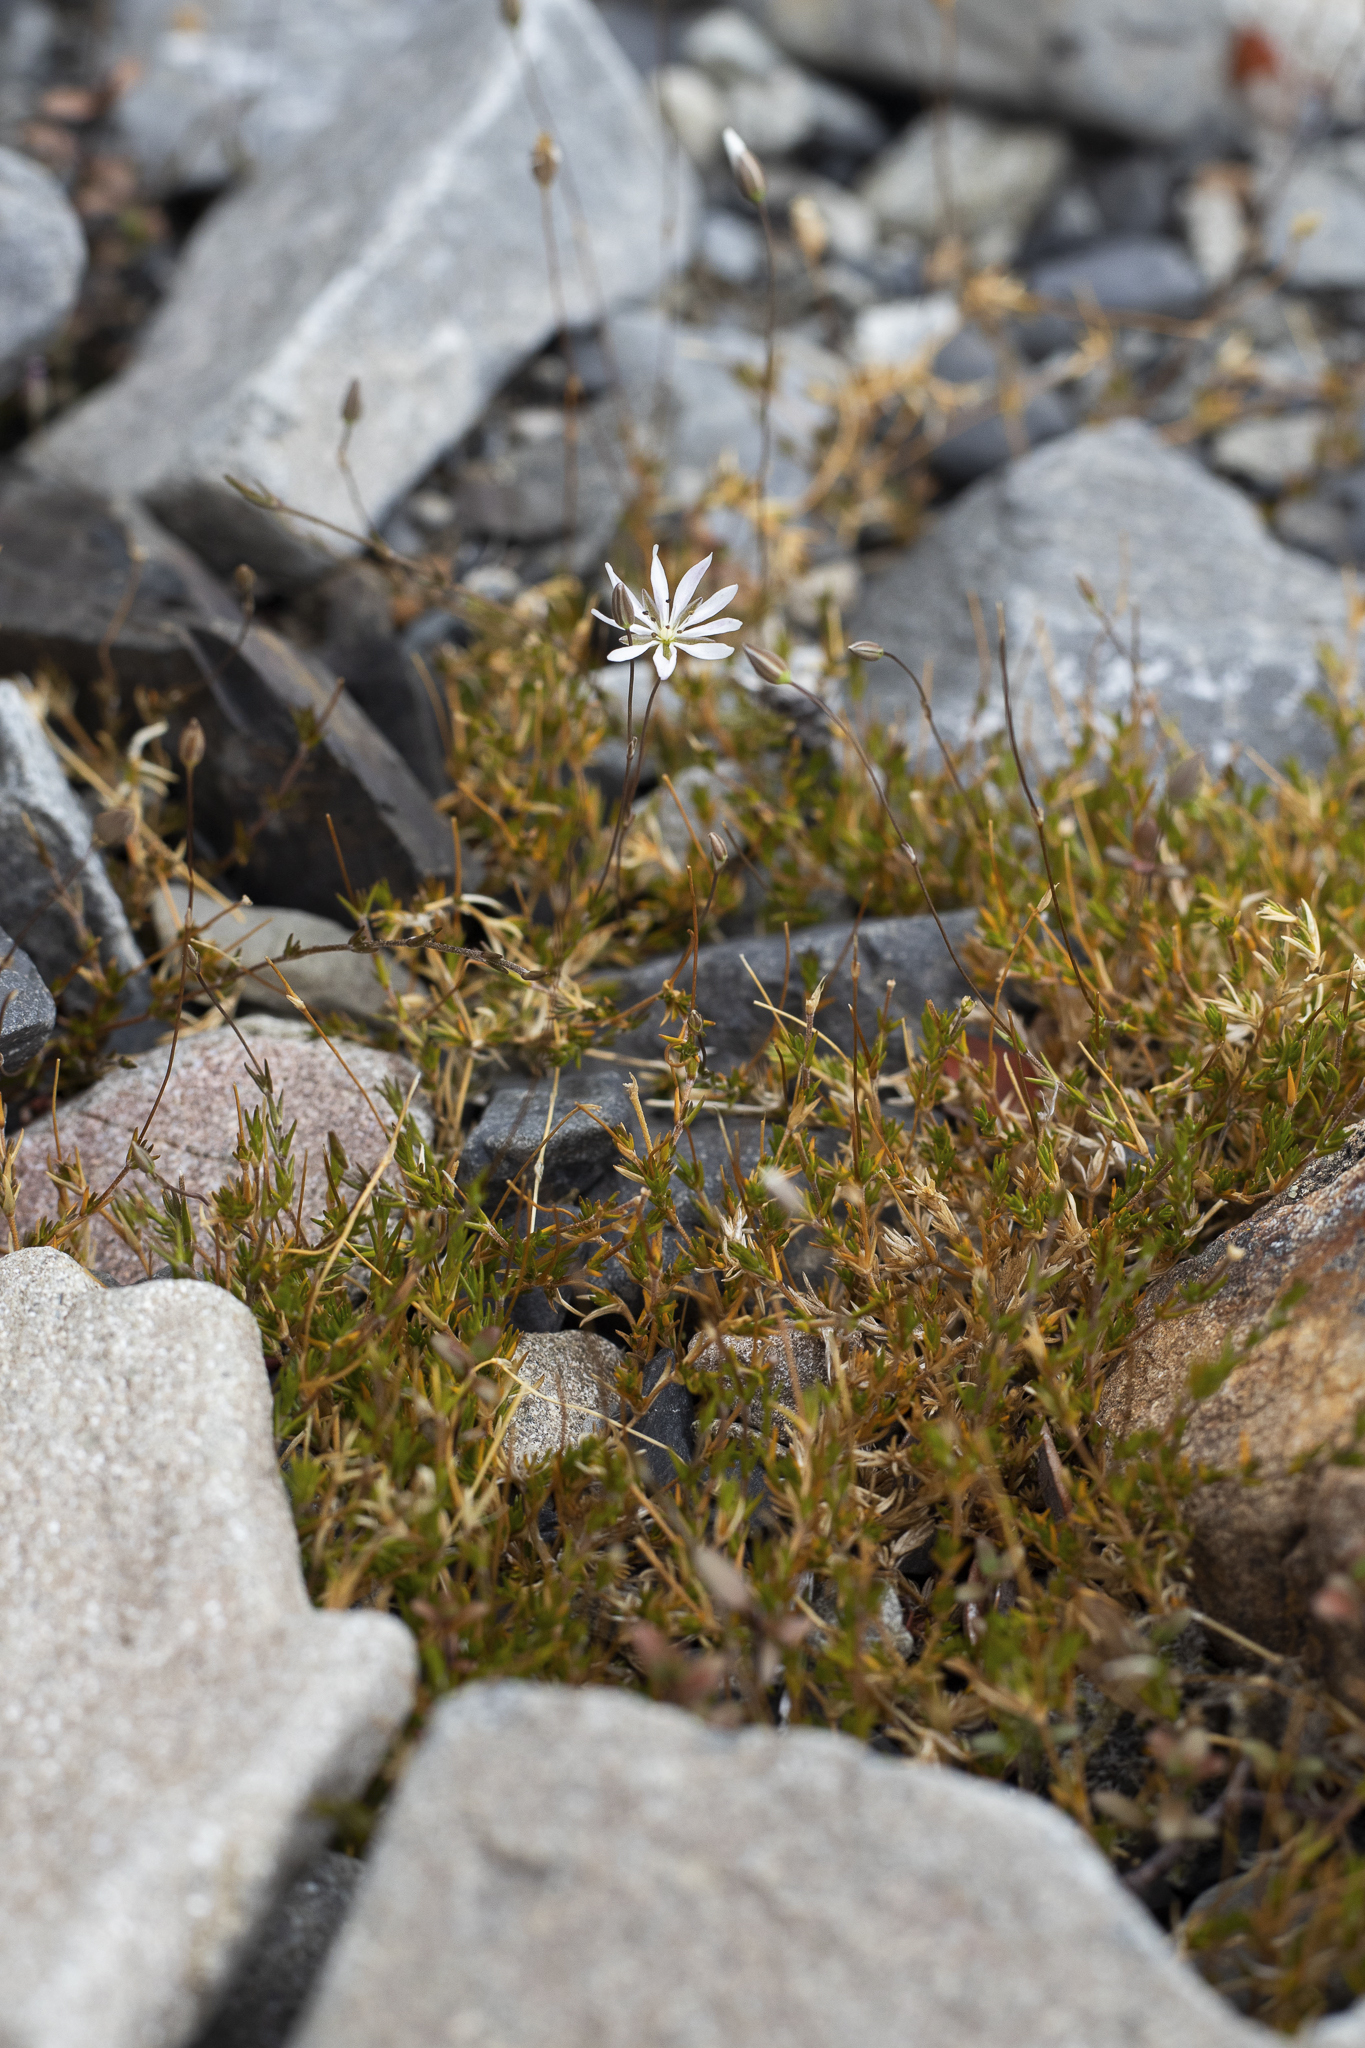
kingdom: Plantae
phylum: Tracheophyta
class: Magnoliopsida
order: Caryophyllales
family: Caryophyllaceae
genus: Stellaria
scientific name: Stellaria gracilenta
